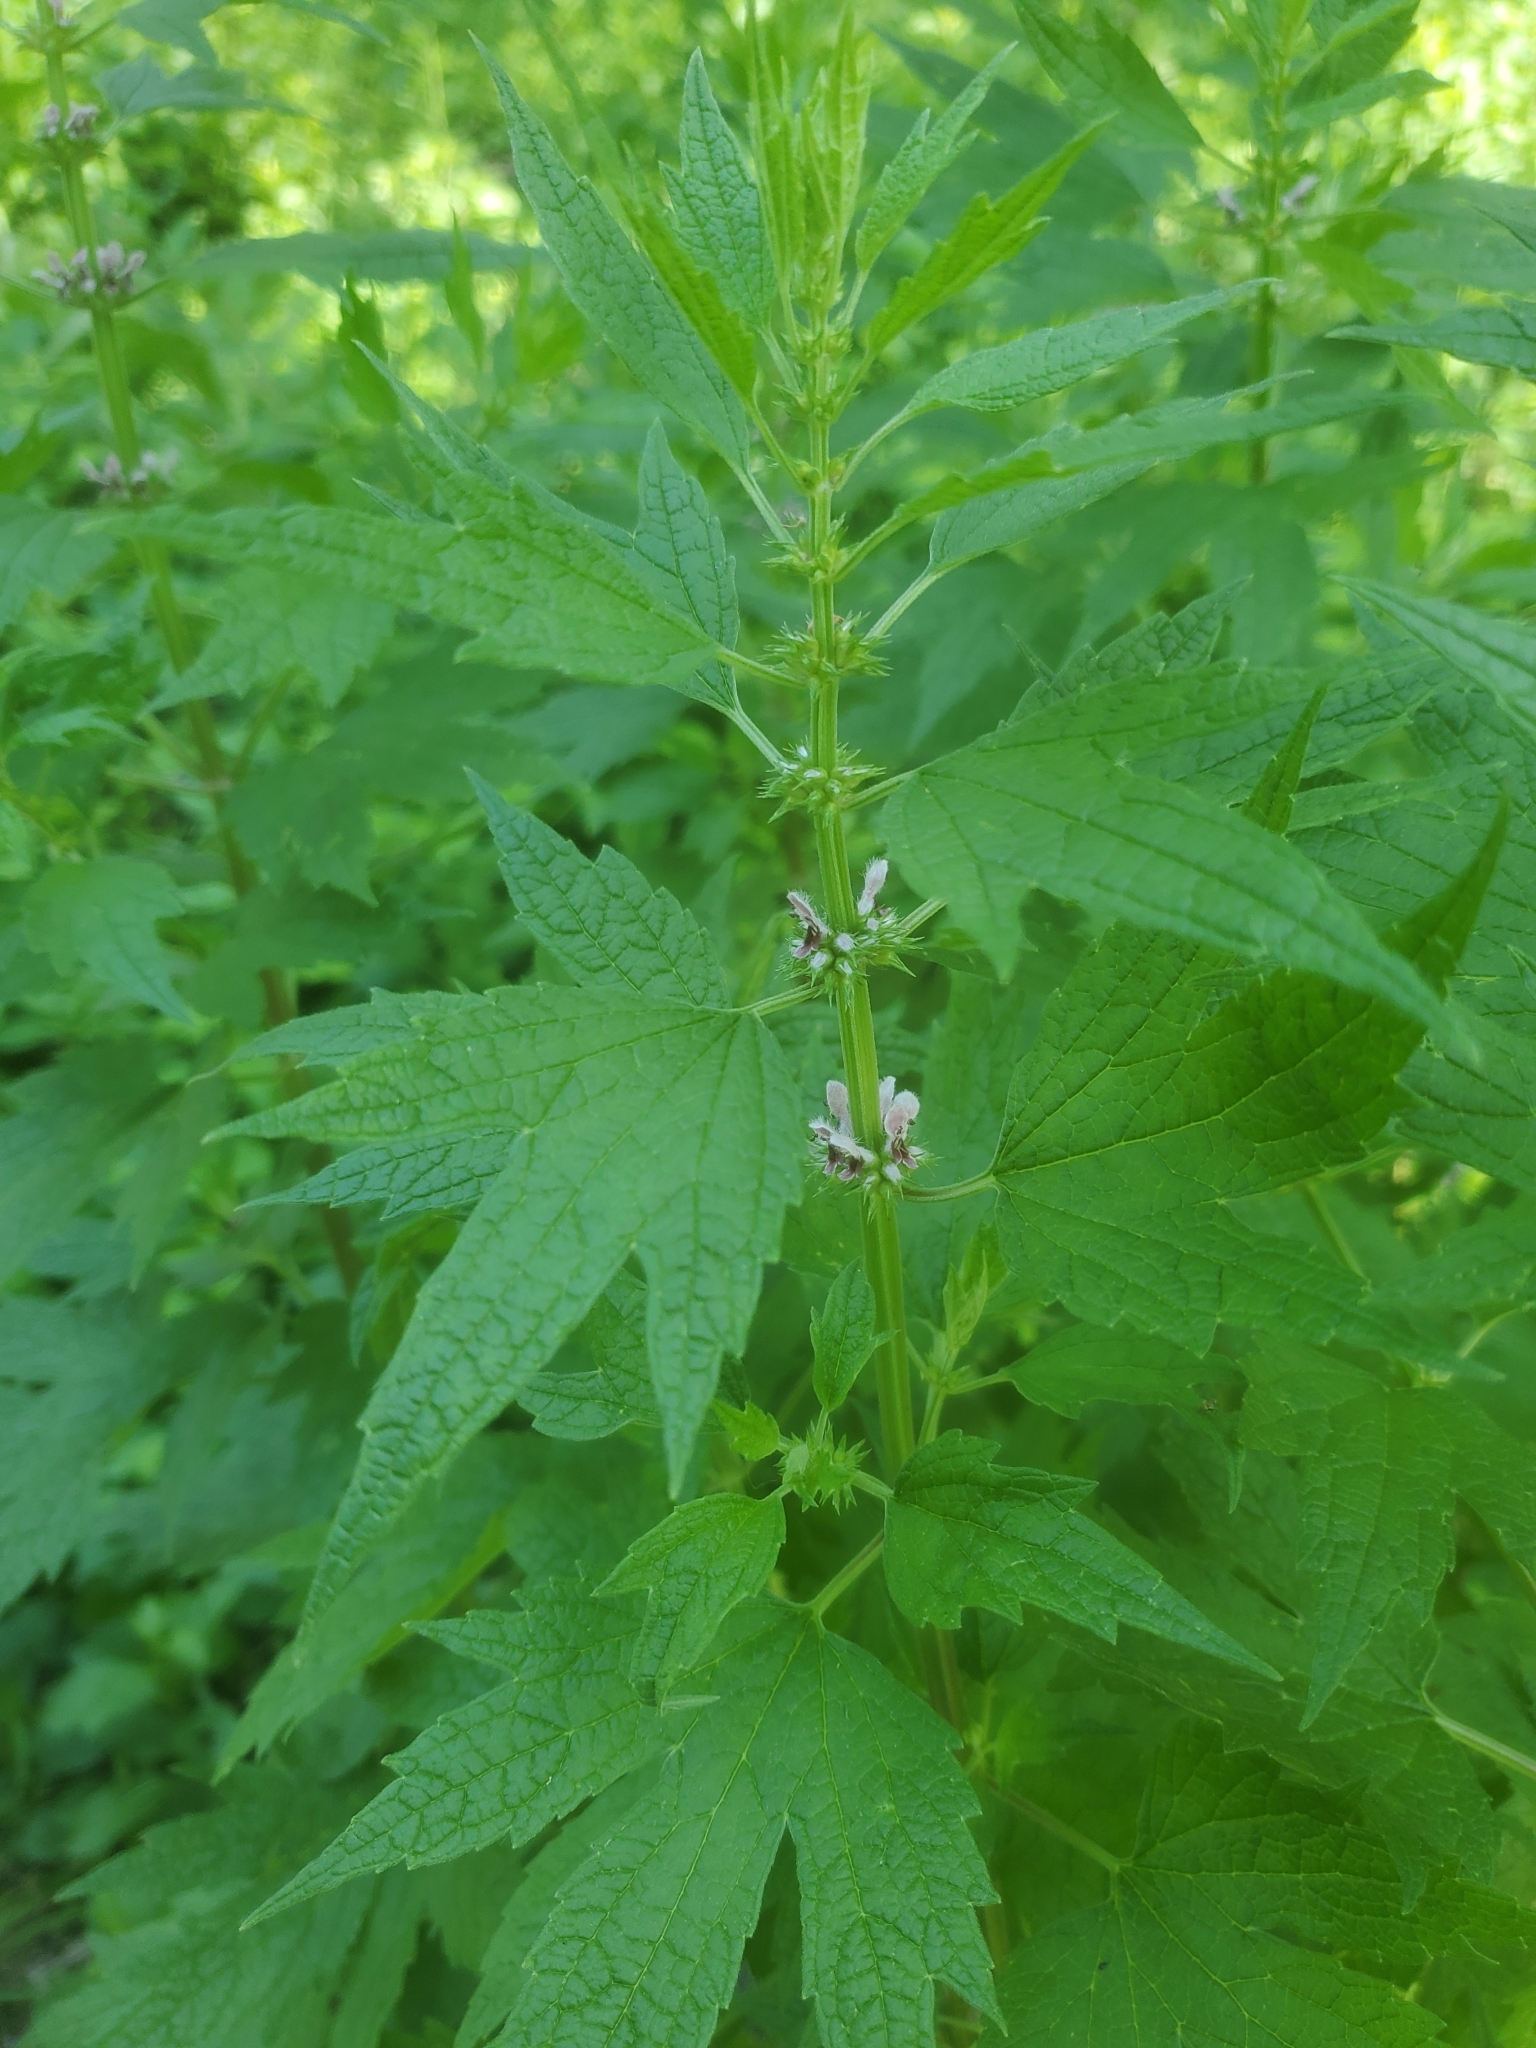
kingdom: Plantae
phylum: Tracheophyta
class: Magnoliopsida
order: Lamiales
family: Lamiaceae
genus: Leonurus
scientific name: Leonurus cardiaca
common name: Motherwort
